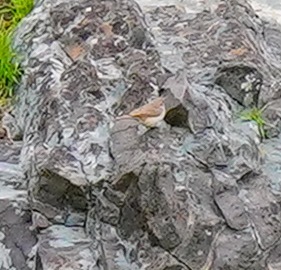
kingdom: Animalia
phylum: Chordata
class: Aves
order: Passeriformes
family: Troglodytidae
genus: Salpinctes
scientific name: Salpinctes obsoletus
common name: Rock wren
